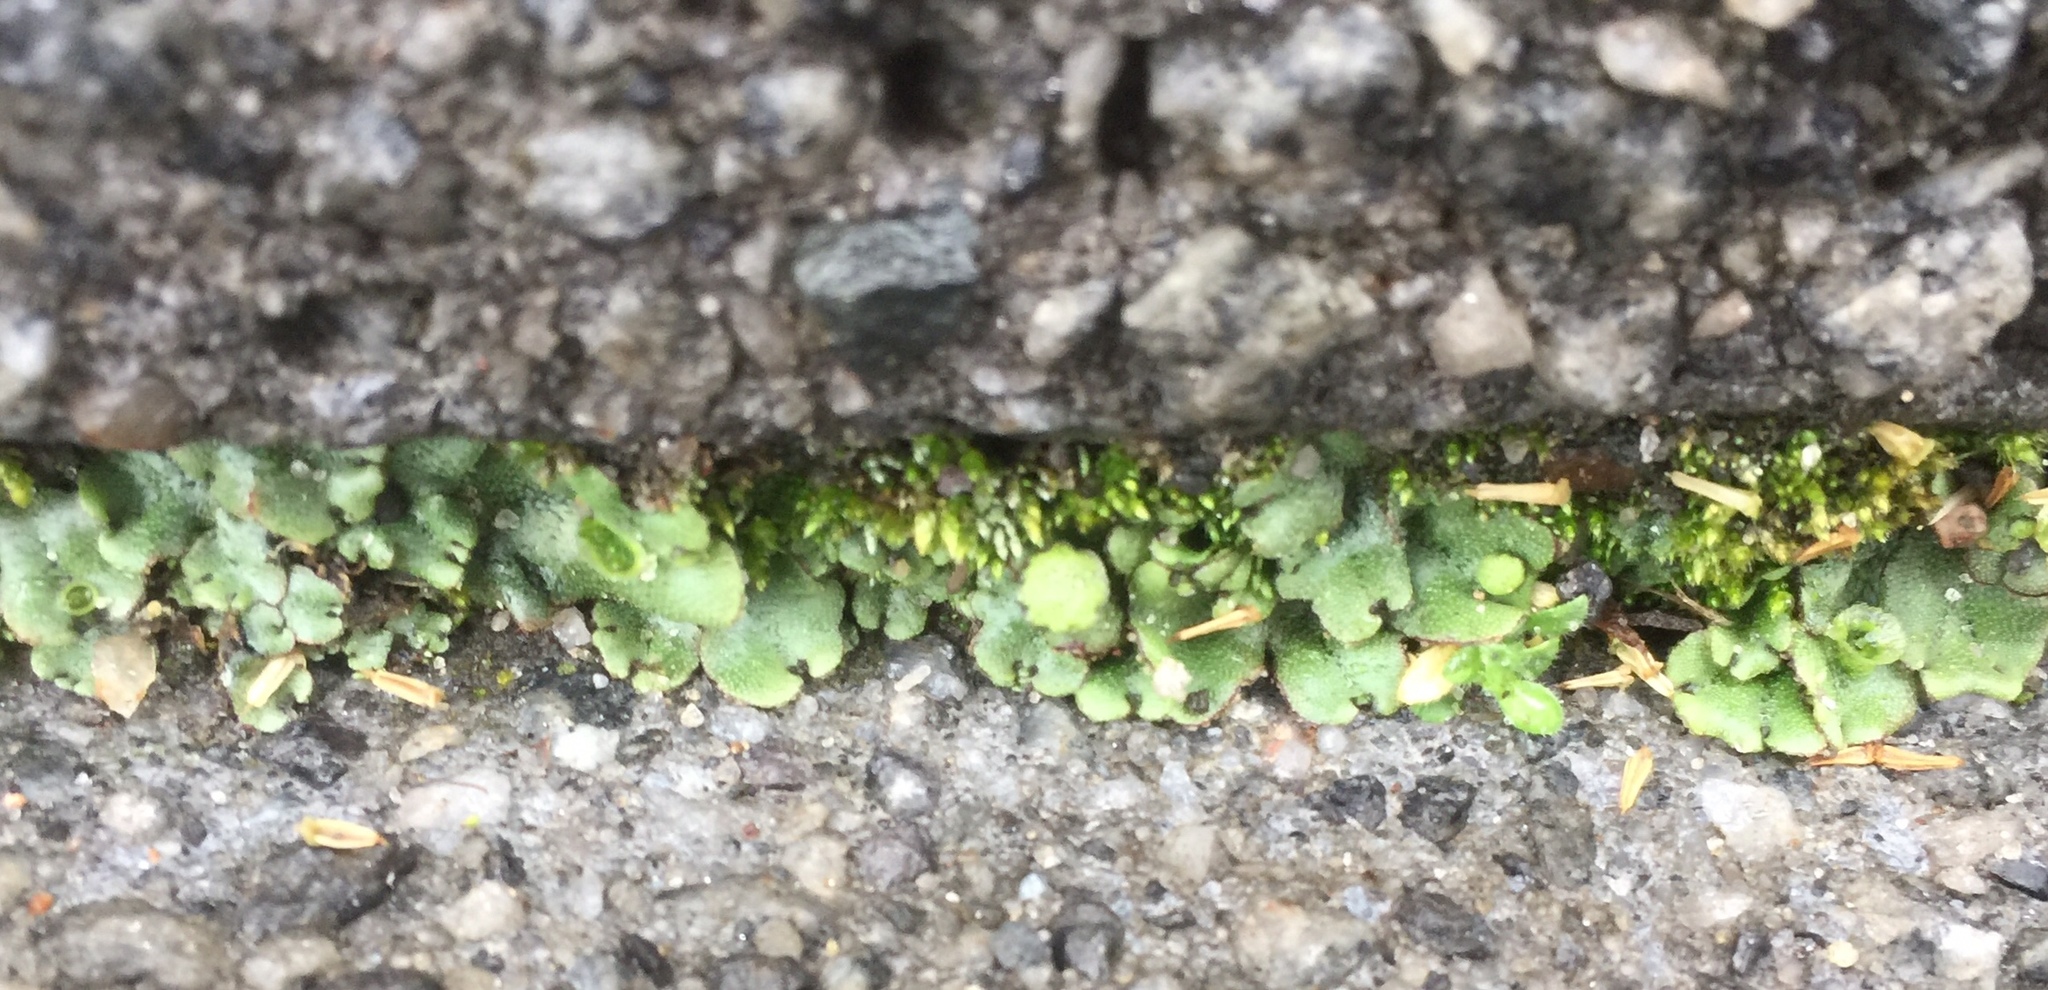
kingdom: Plantae
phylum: Marchantiophyta
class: Marchantiopsida
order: Marchantiales
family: Marchantiaceae
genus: Marchantia
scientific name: Marchantia polymorpha
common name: Common liverwort
